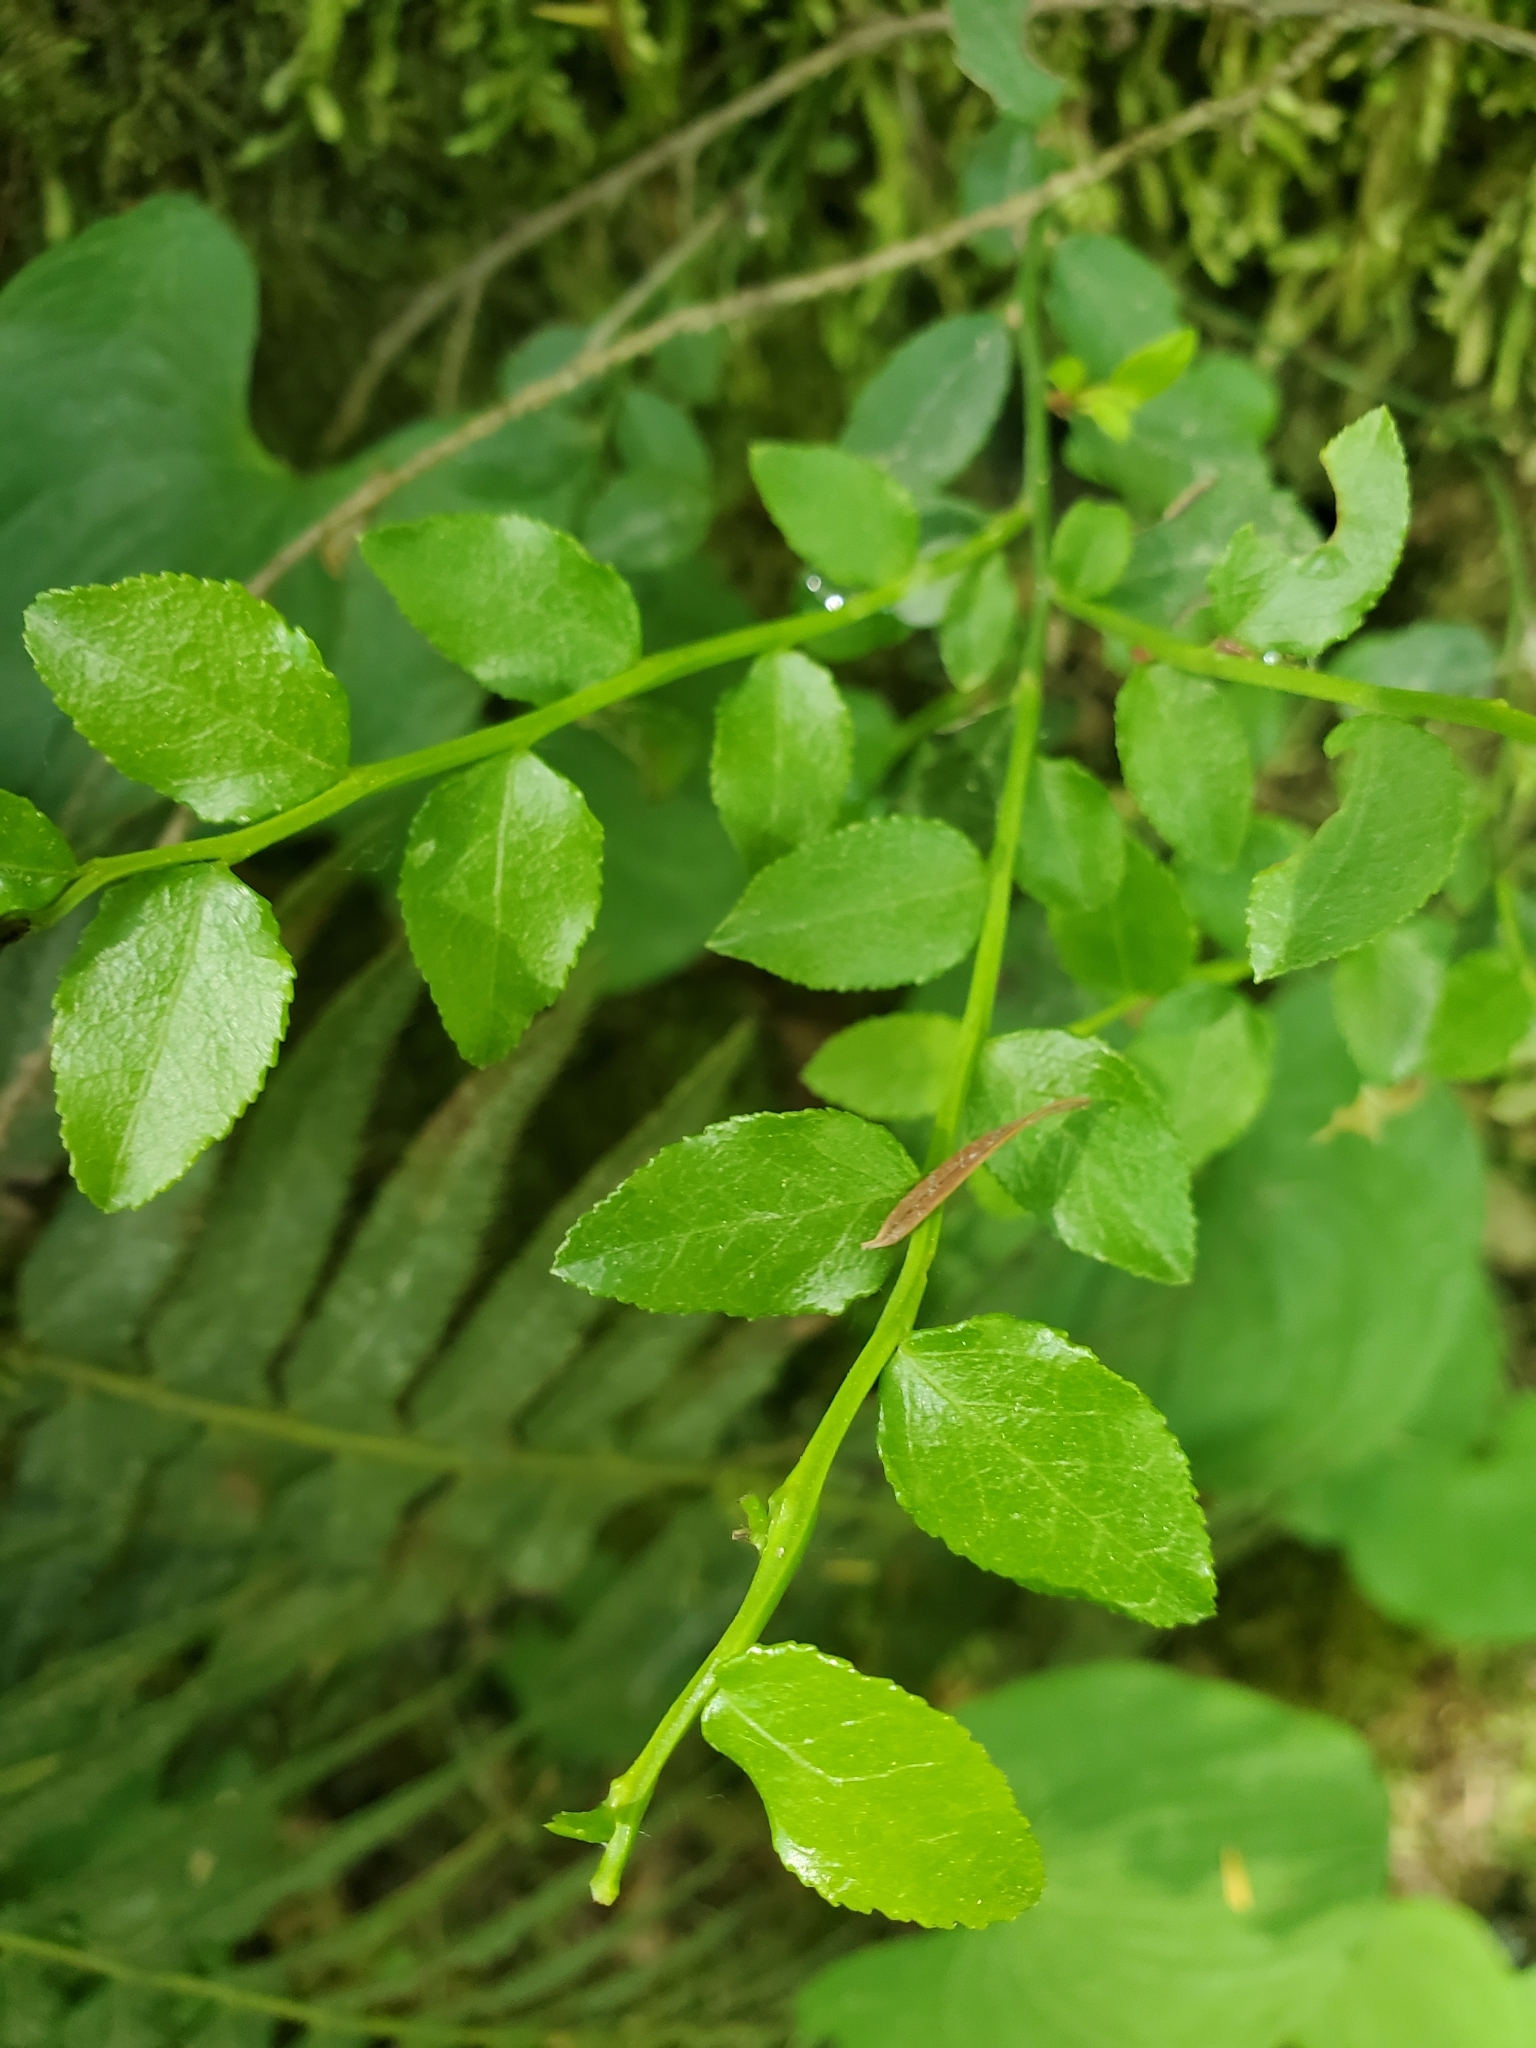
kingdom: Plantae
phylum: Tracheophyta
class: Magnoliopsida
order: Ericales
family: Ericaceae
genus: Vaccinium
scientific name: Vaccinium parvifolium
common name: Red-huckleberry
